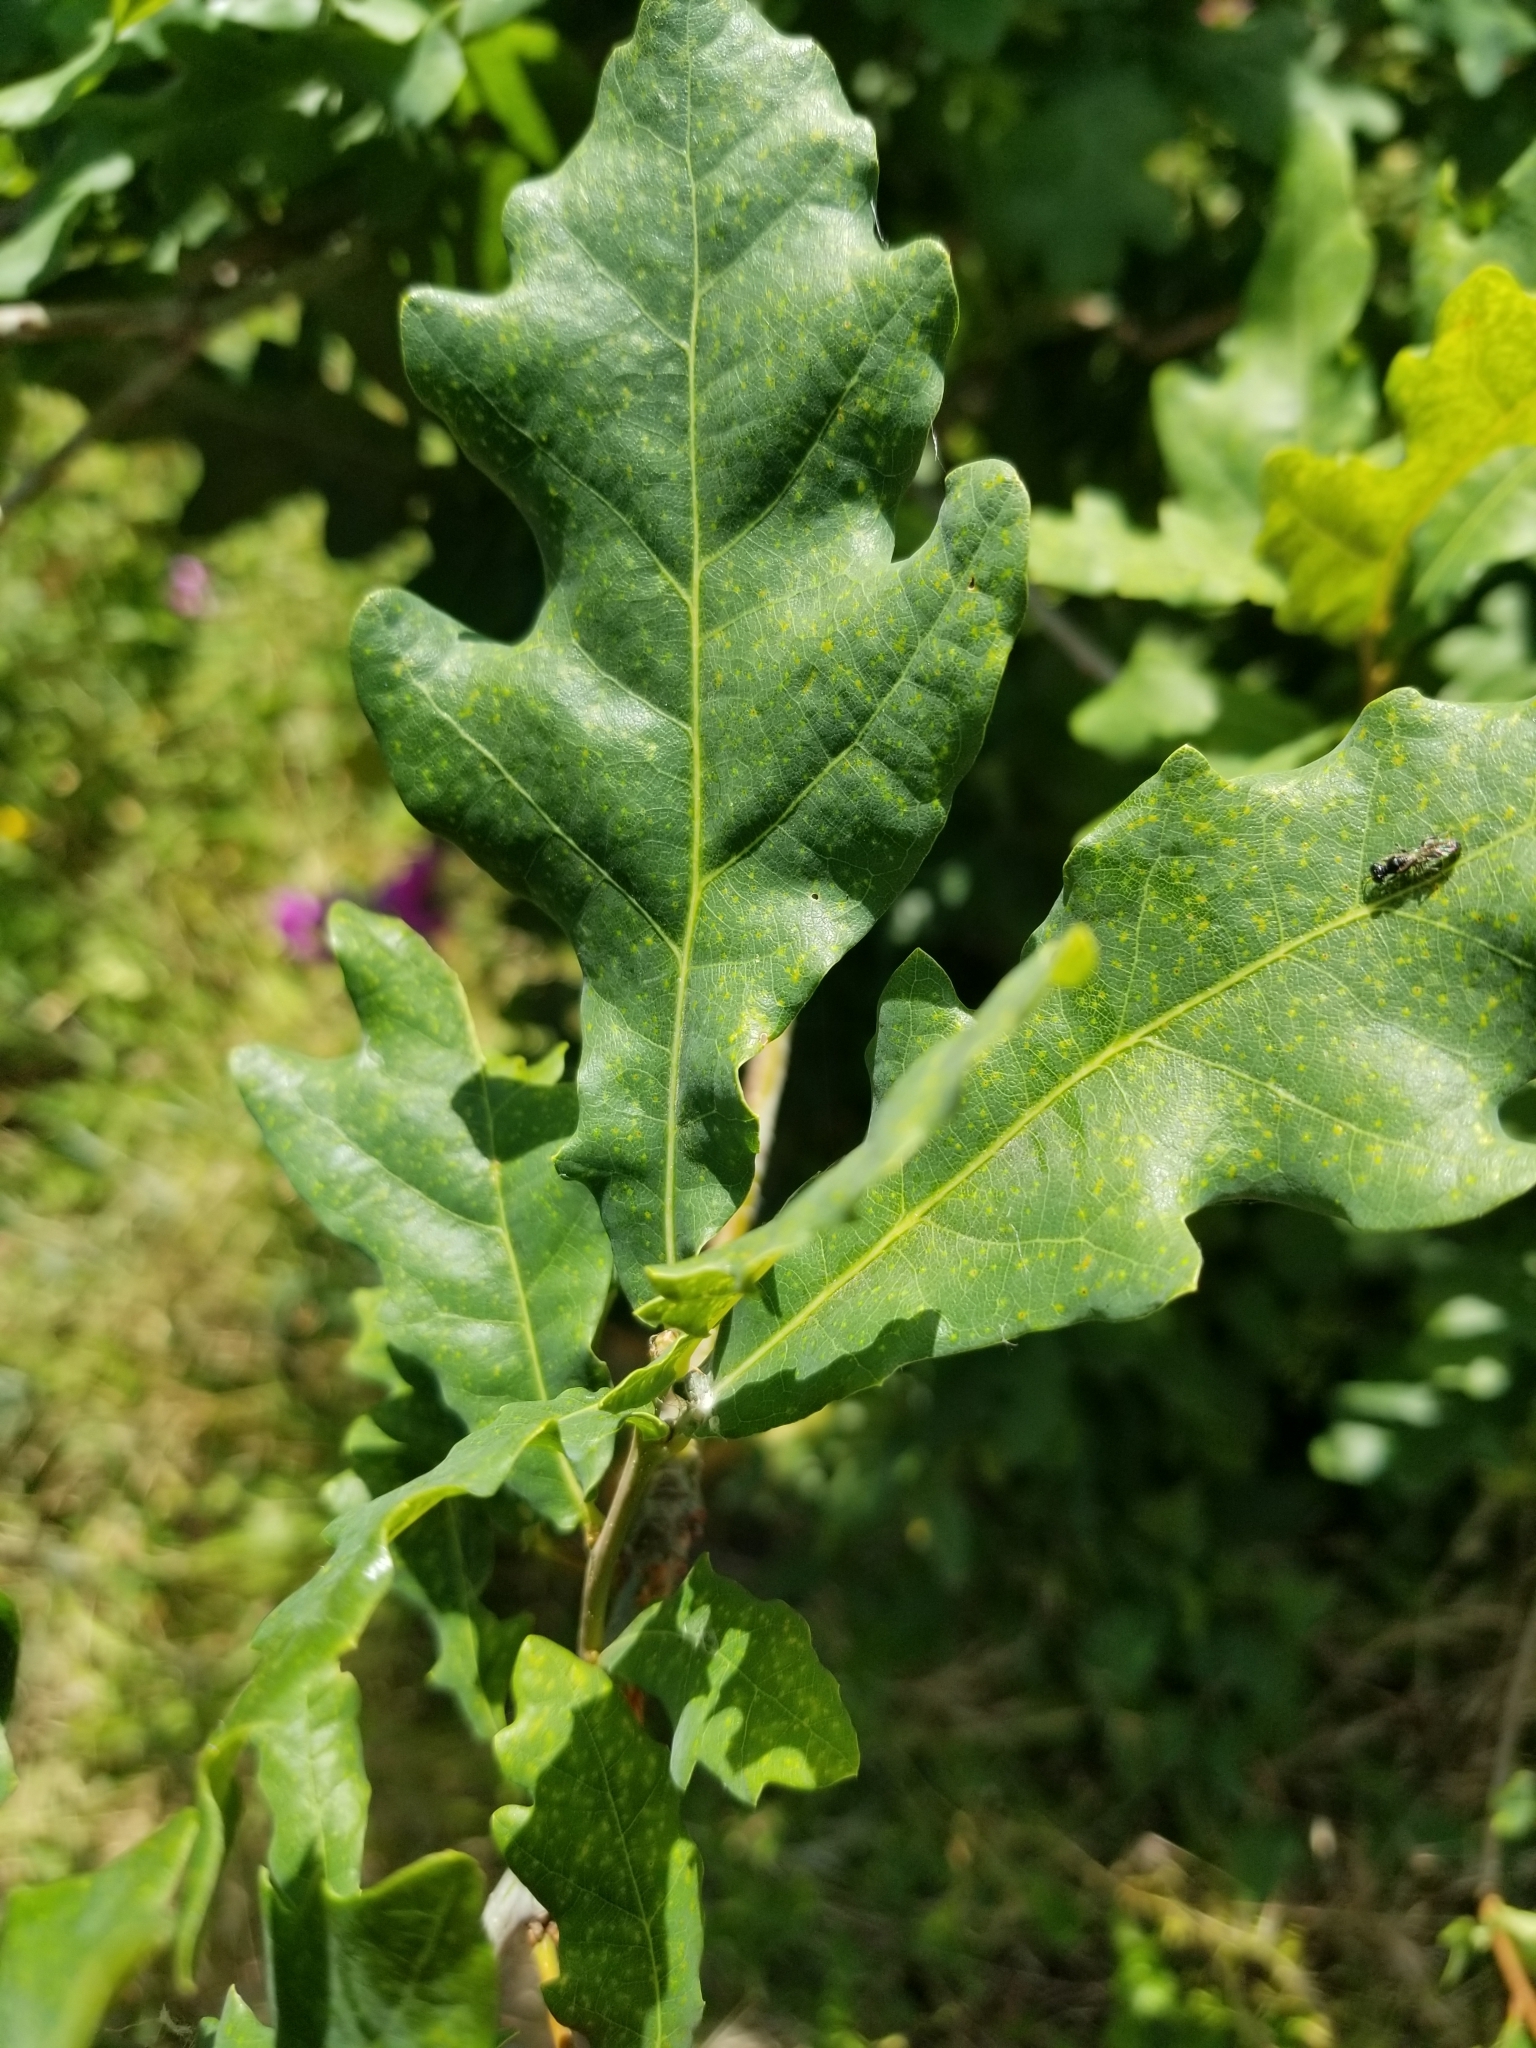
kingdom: Plantae
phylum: Tracheophyta
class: Magnoliopsida
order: Fagales
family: Fagaceae
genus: Quercus
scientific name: Quercus robur
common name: Pedunculate oak
